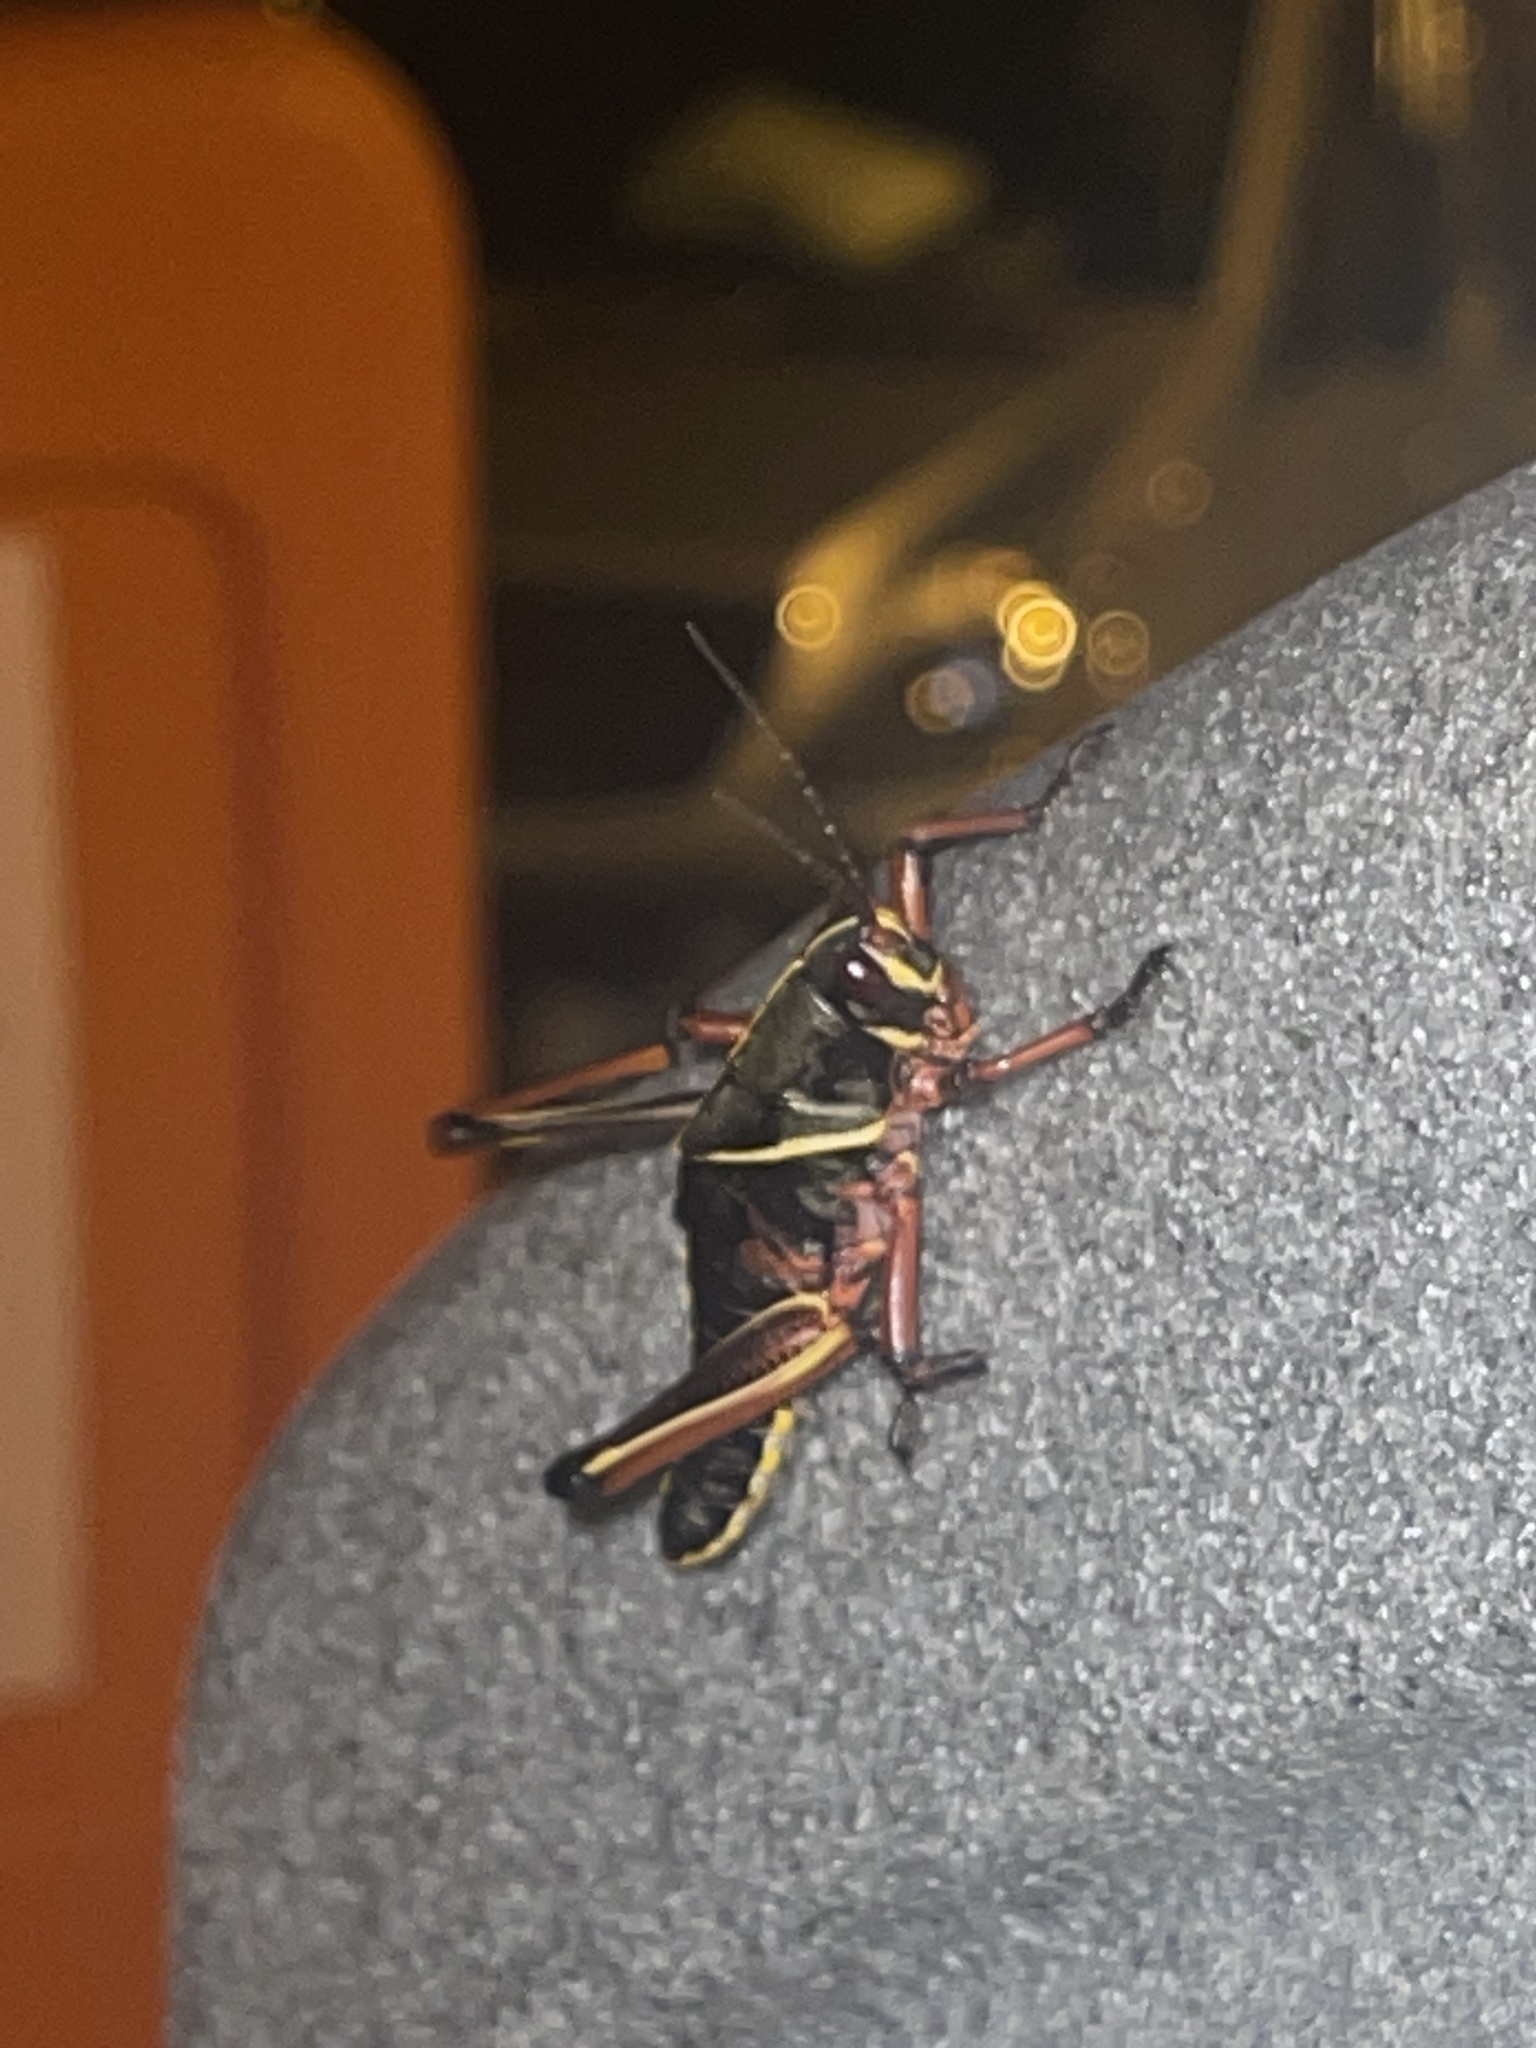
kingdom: Animalia
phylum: Arthropoda
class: Insecta
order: Orthoptera
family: Romaleidae
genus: Romalea
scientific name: Romalea microptera
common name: Eastern lubber grasshopper
